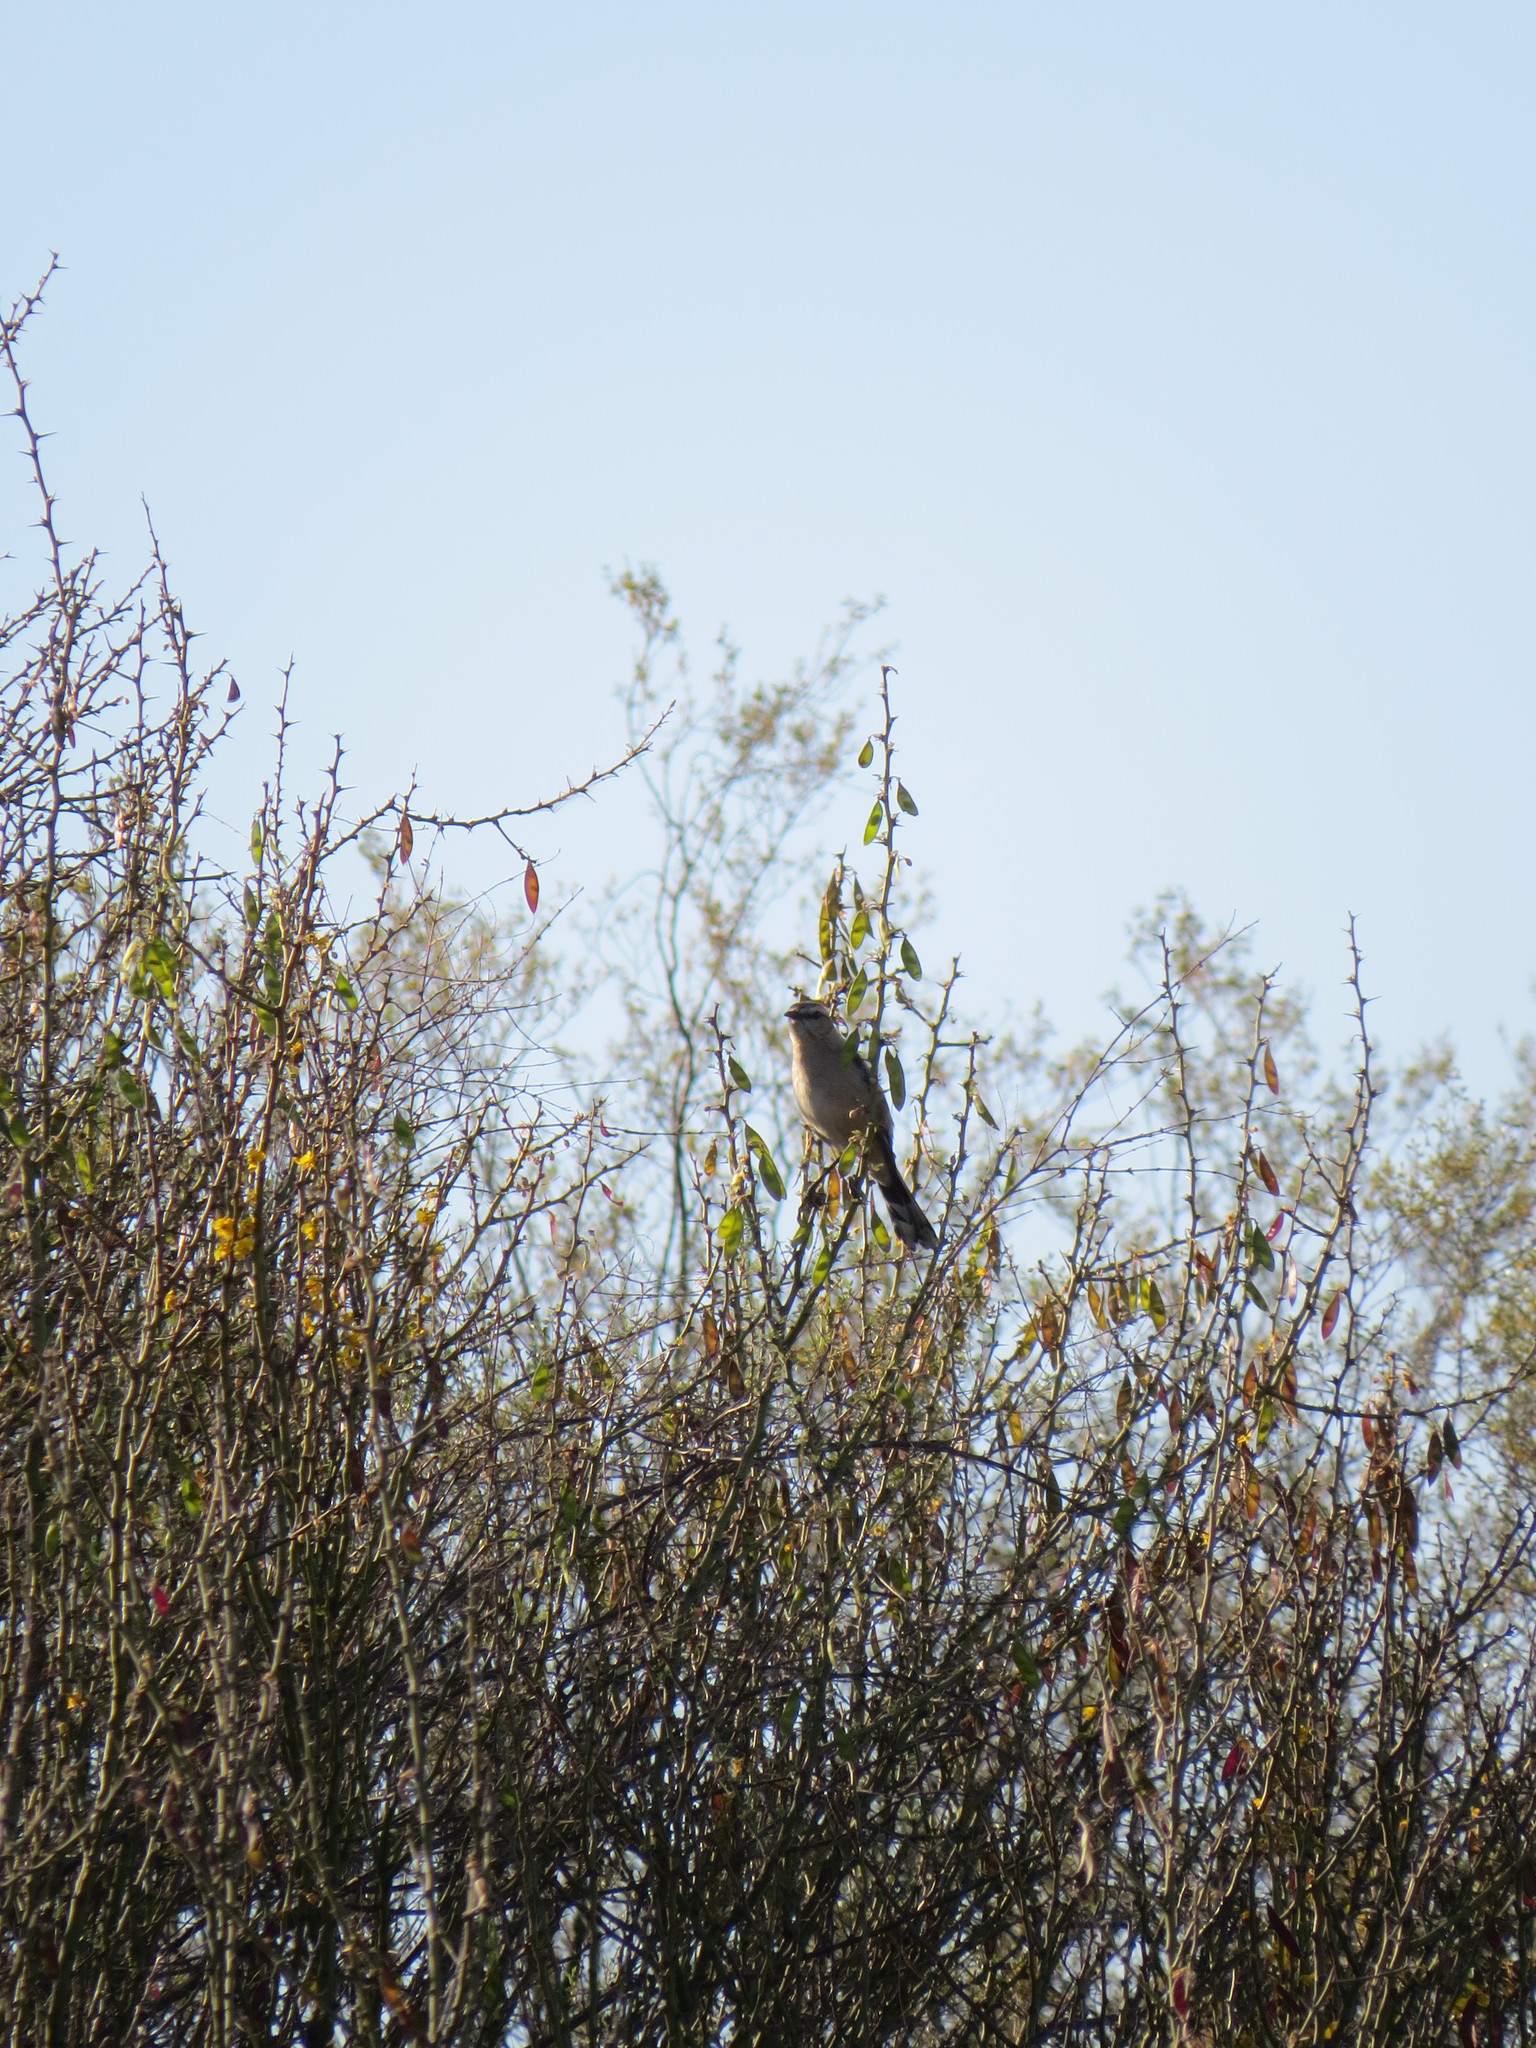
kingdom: Animalia
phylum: Chordata
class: Aves
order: Passeriformes
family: Mimidae
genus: Mimus
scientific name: Mimus patagonicus
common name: Patagonian mockingbird
